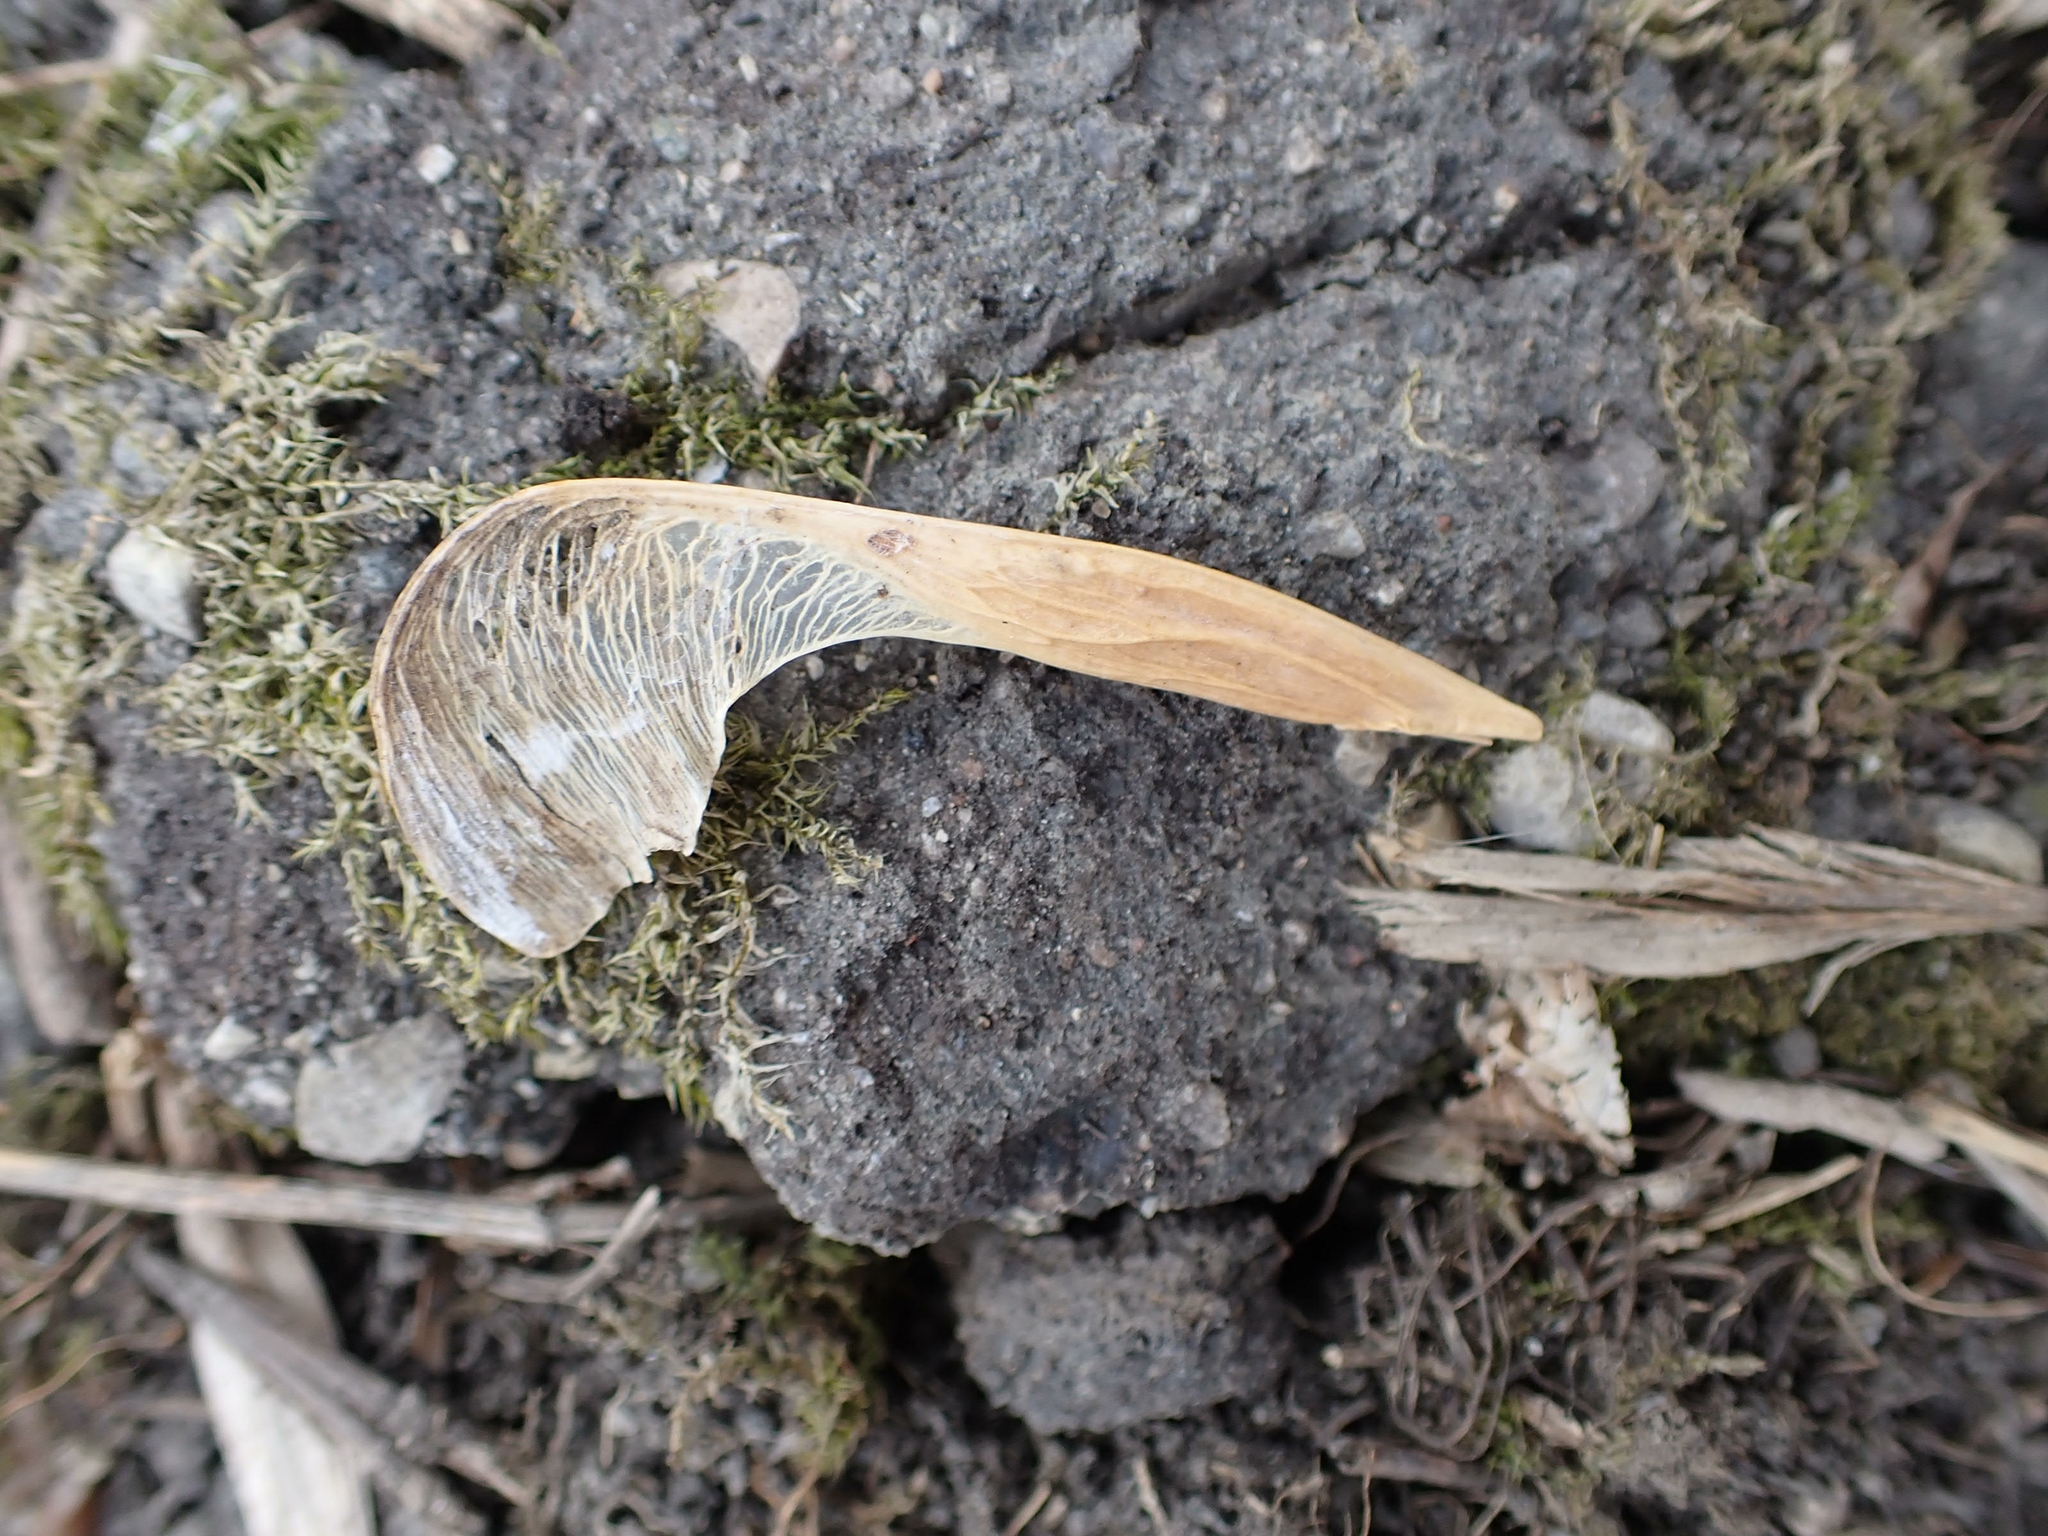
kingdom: Plantae
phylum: Tracheophyta
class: Magnoliopsida
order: Sapindales
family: Sapindaceae
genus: Acer
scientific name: Acer negundo
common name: Ashleaf maple
